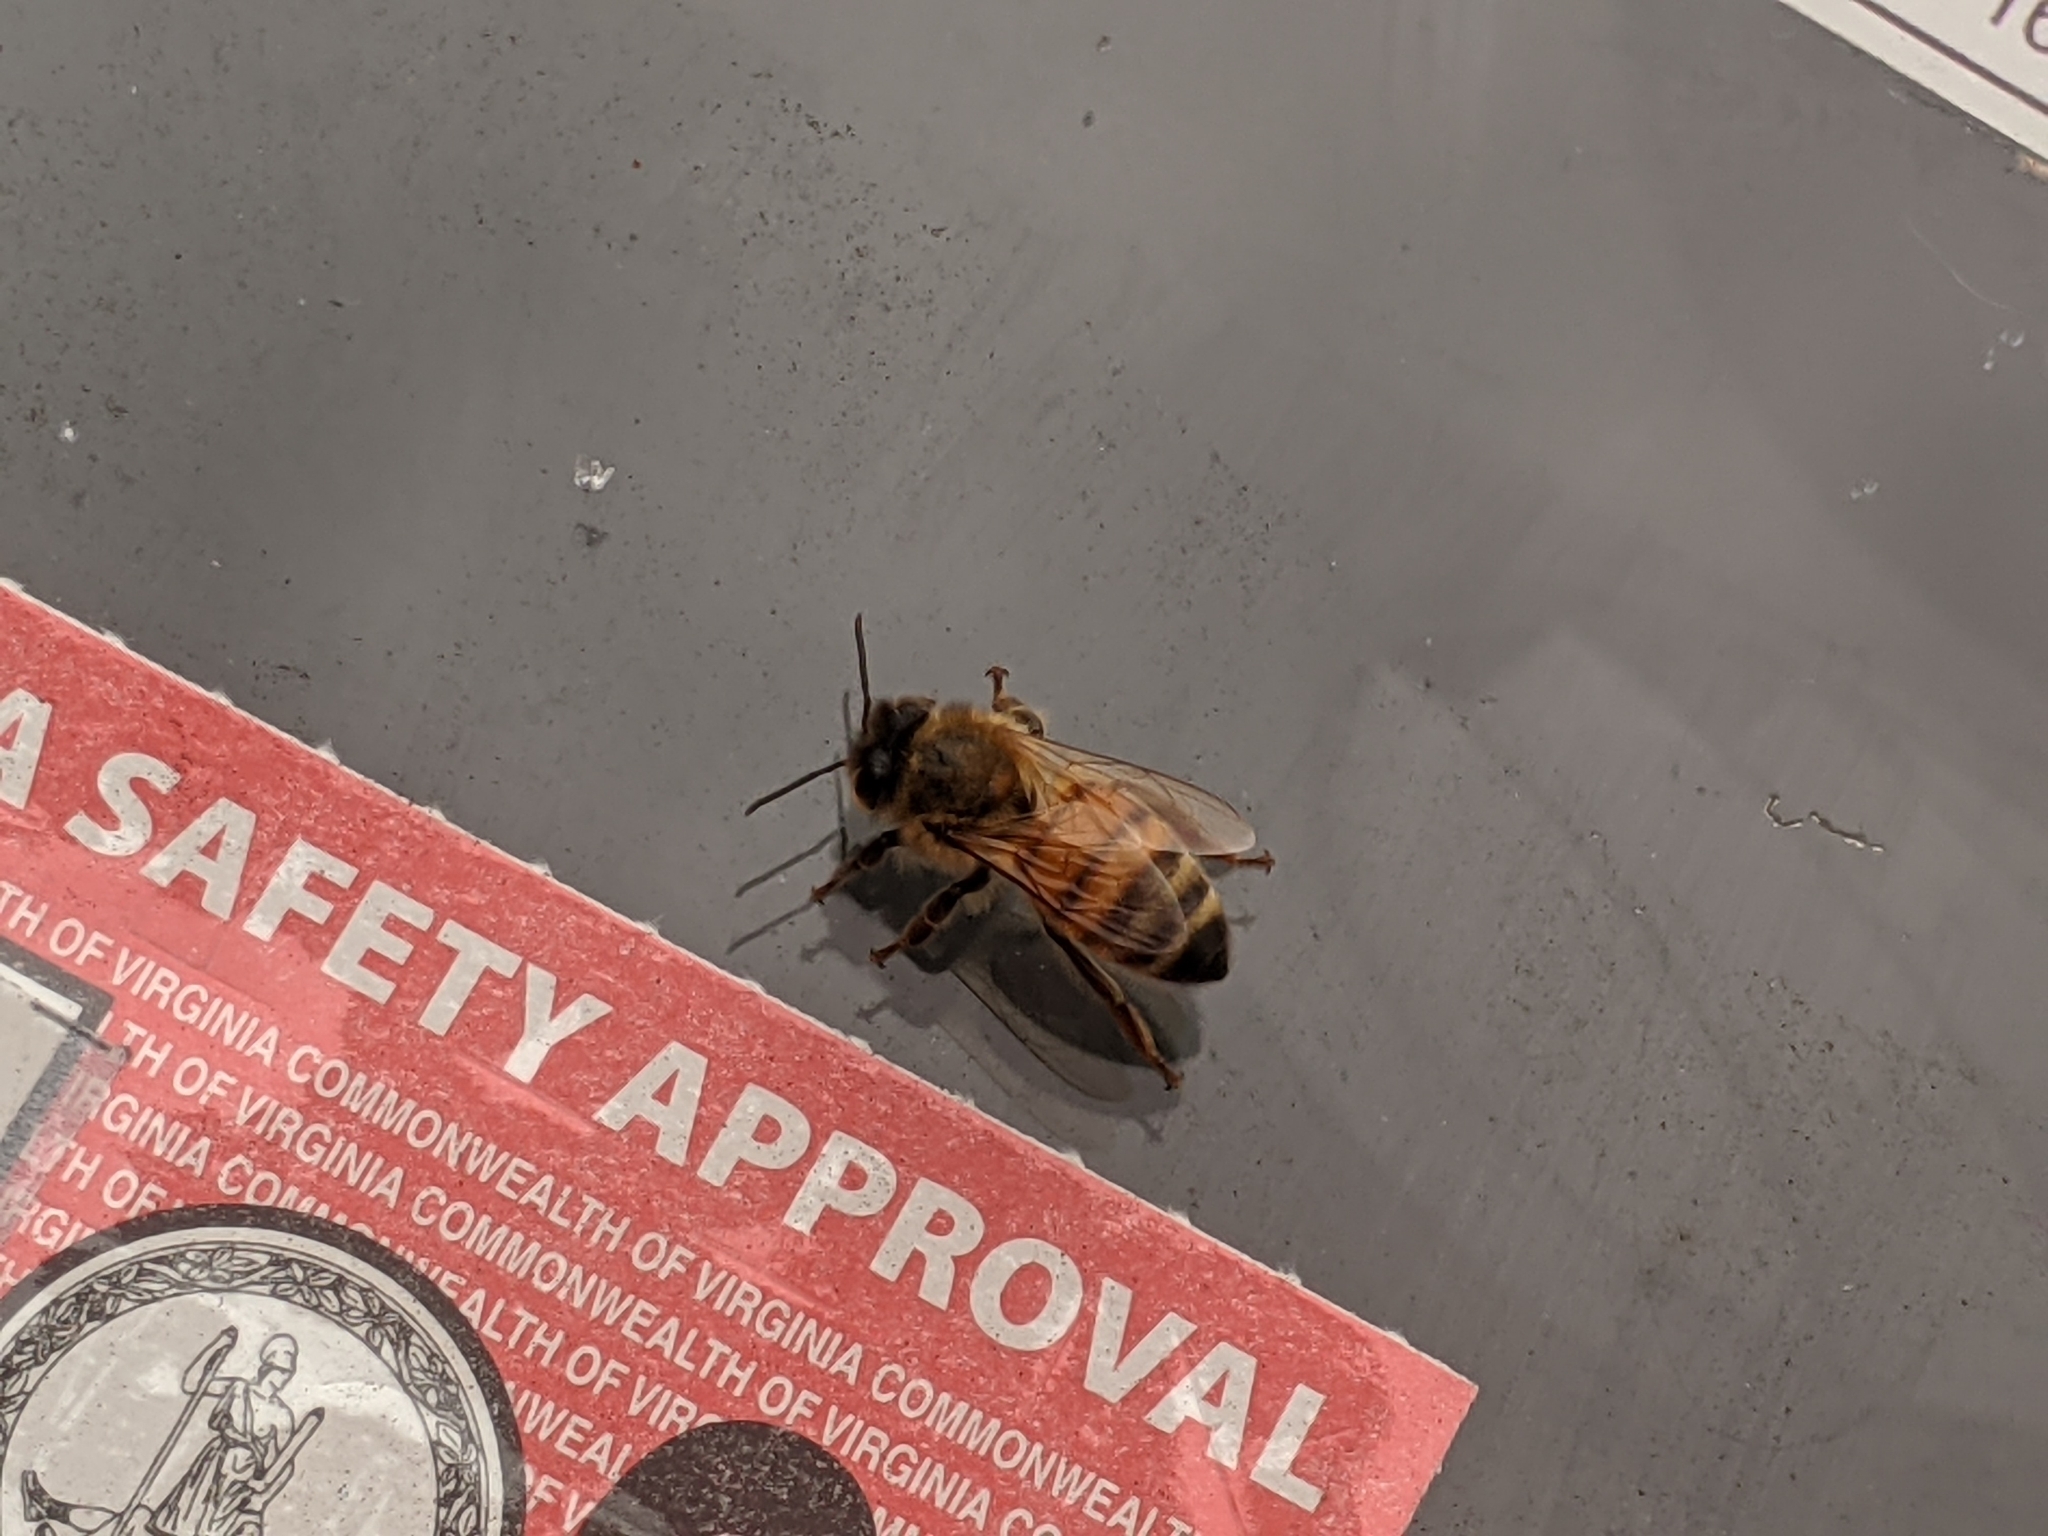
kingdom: Animalia
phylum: Arthropoda
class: Insecta
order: Hymenoptera
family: Apidae
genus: Apis
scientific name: Apis mellifera
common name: Honey bee
